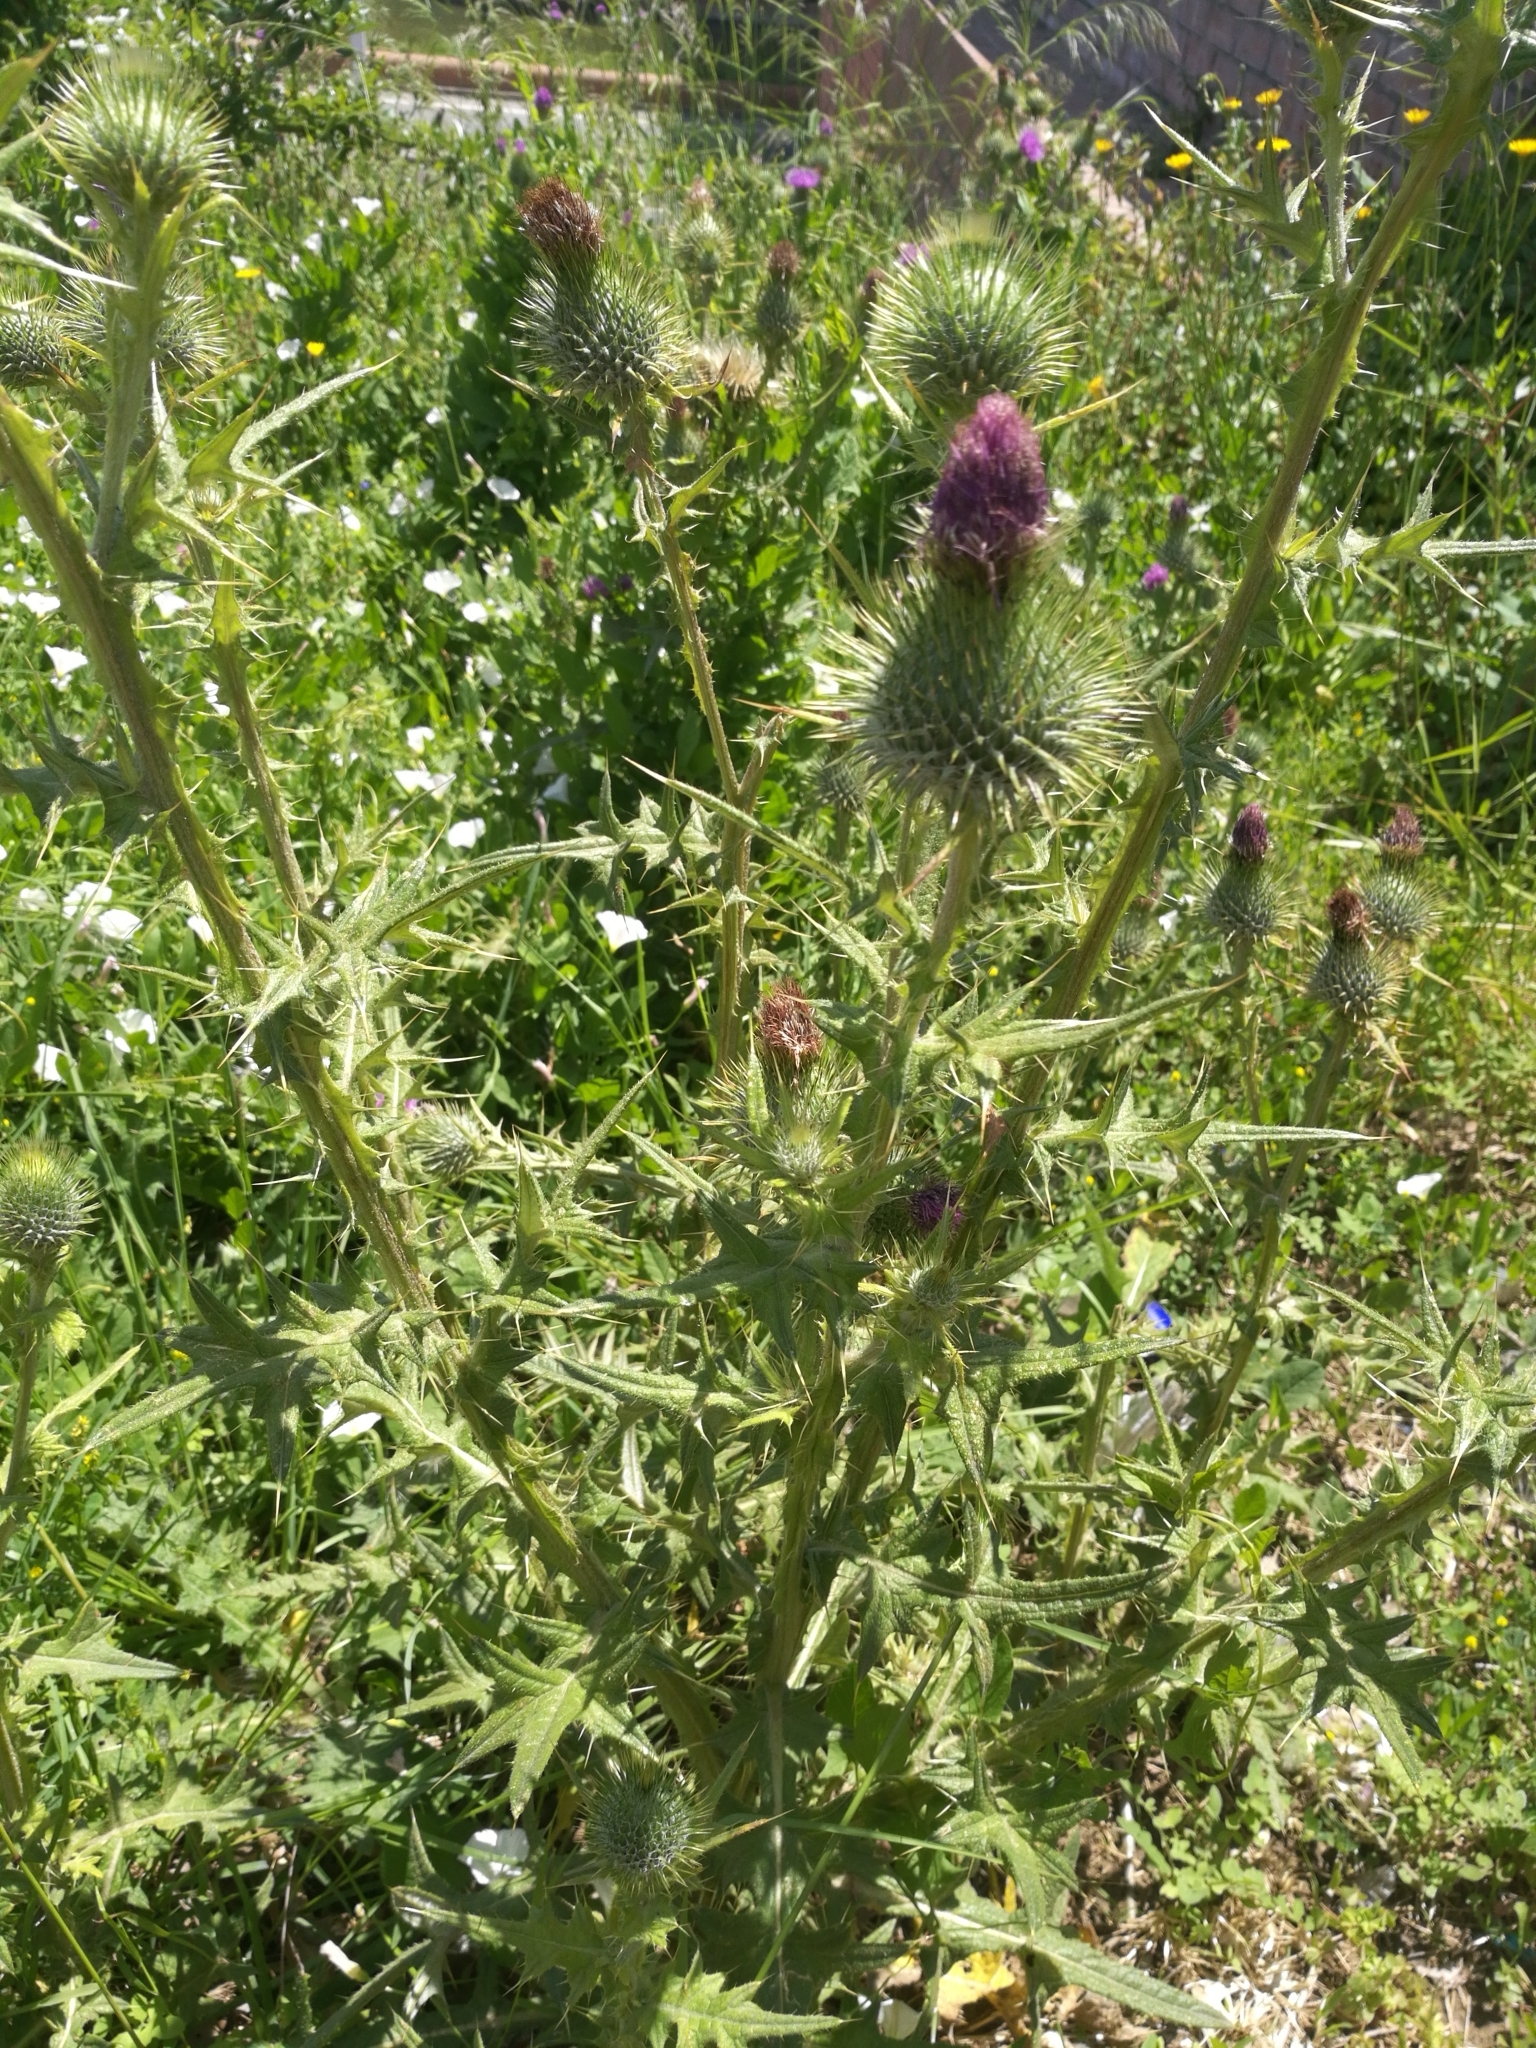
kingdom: Plantae
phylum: Tracheophyta
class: Magnoliopsida
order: Asterales
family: Asteraceae
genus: Cirsium
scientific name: Cirsium vulgare
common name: Bull thistle
